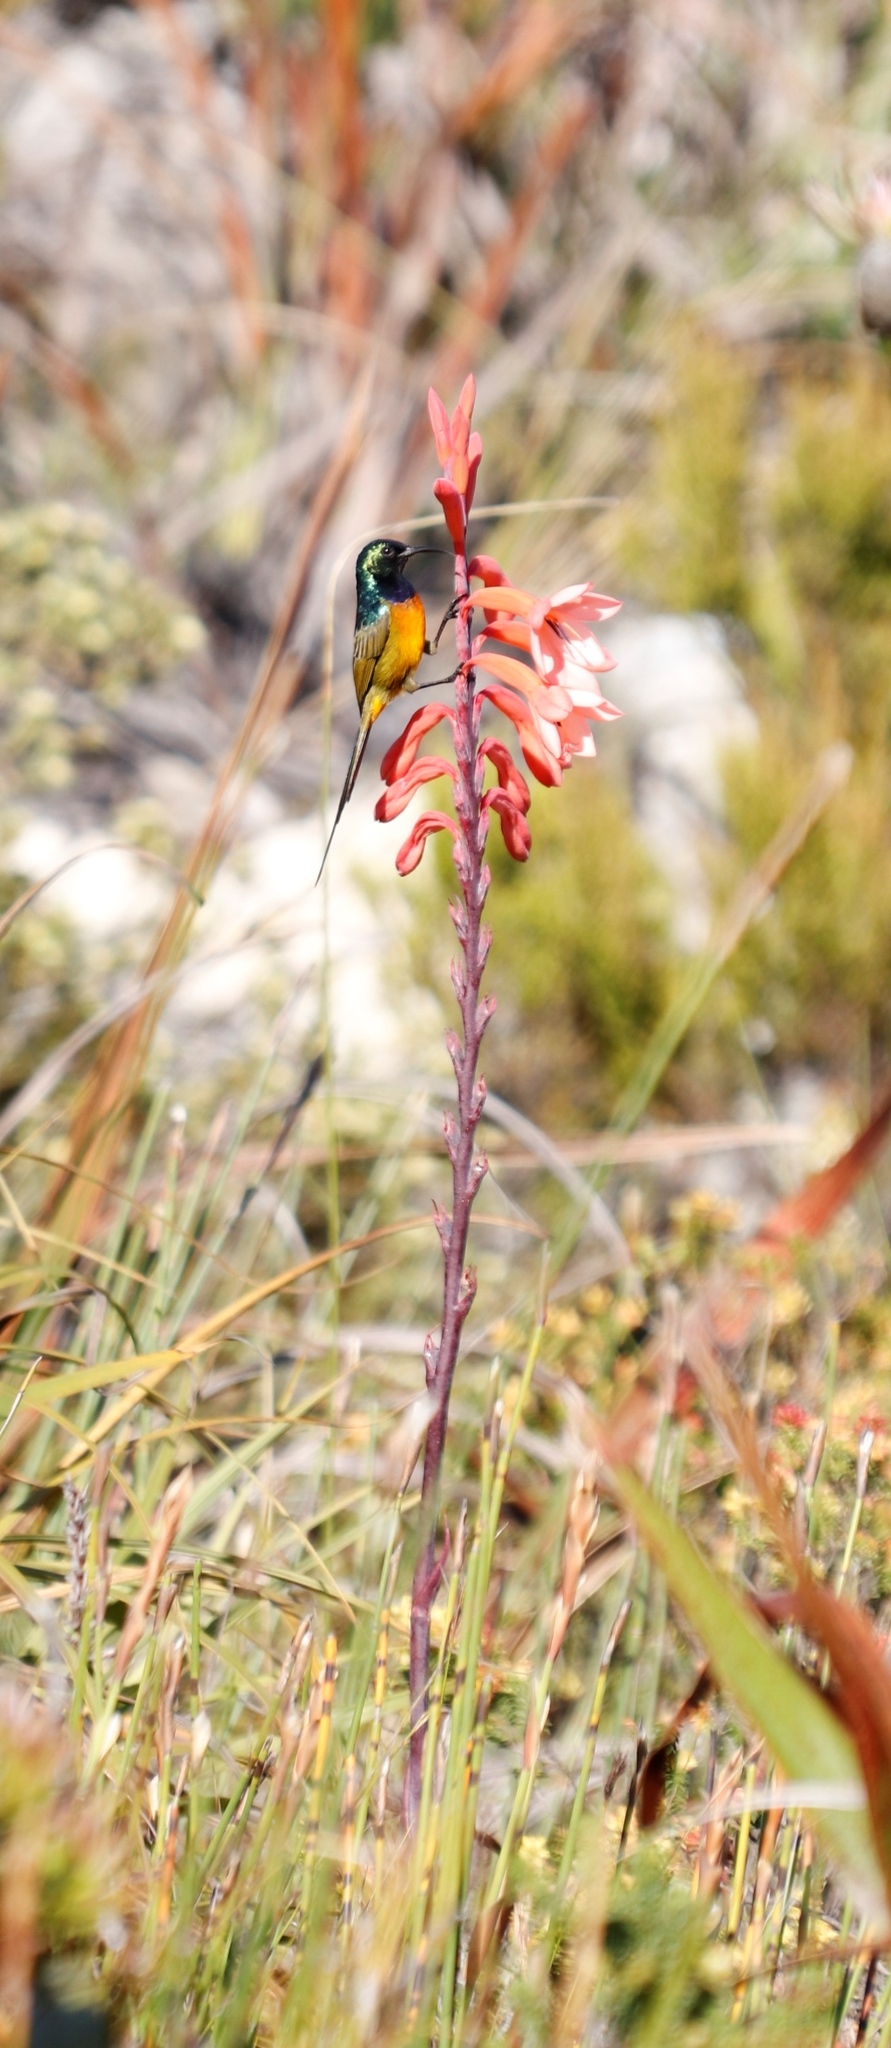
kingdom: Animalia
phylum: Chordata
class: Aves
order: Passeriformes
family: Nectariniidae
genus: Anthobaphes
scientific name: Anthobaphes violacea
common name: Orange-breasted sunbird
